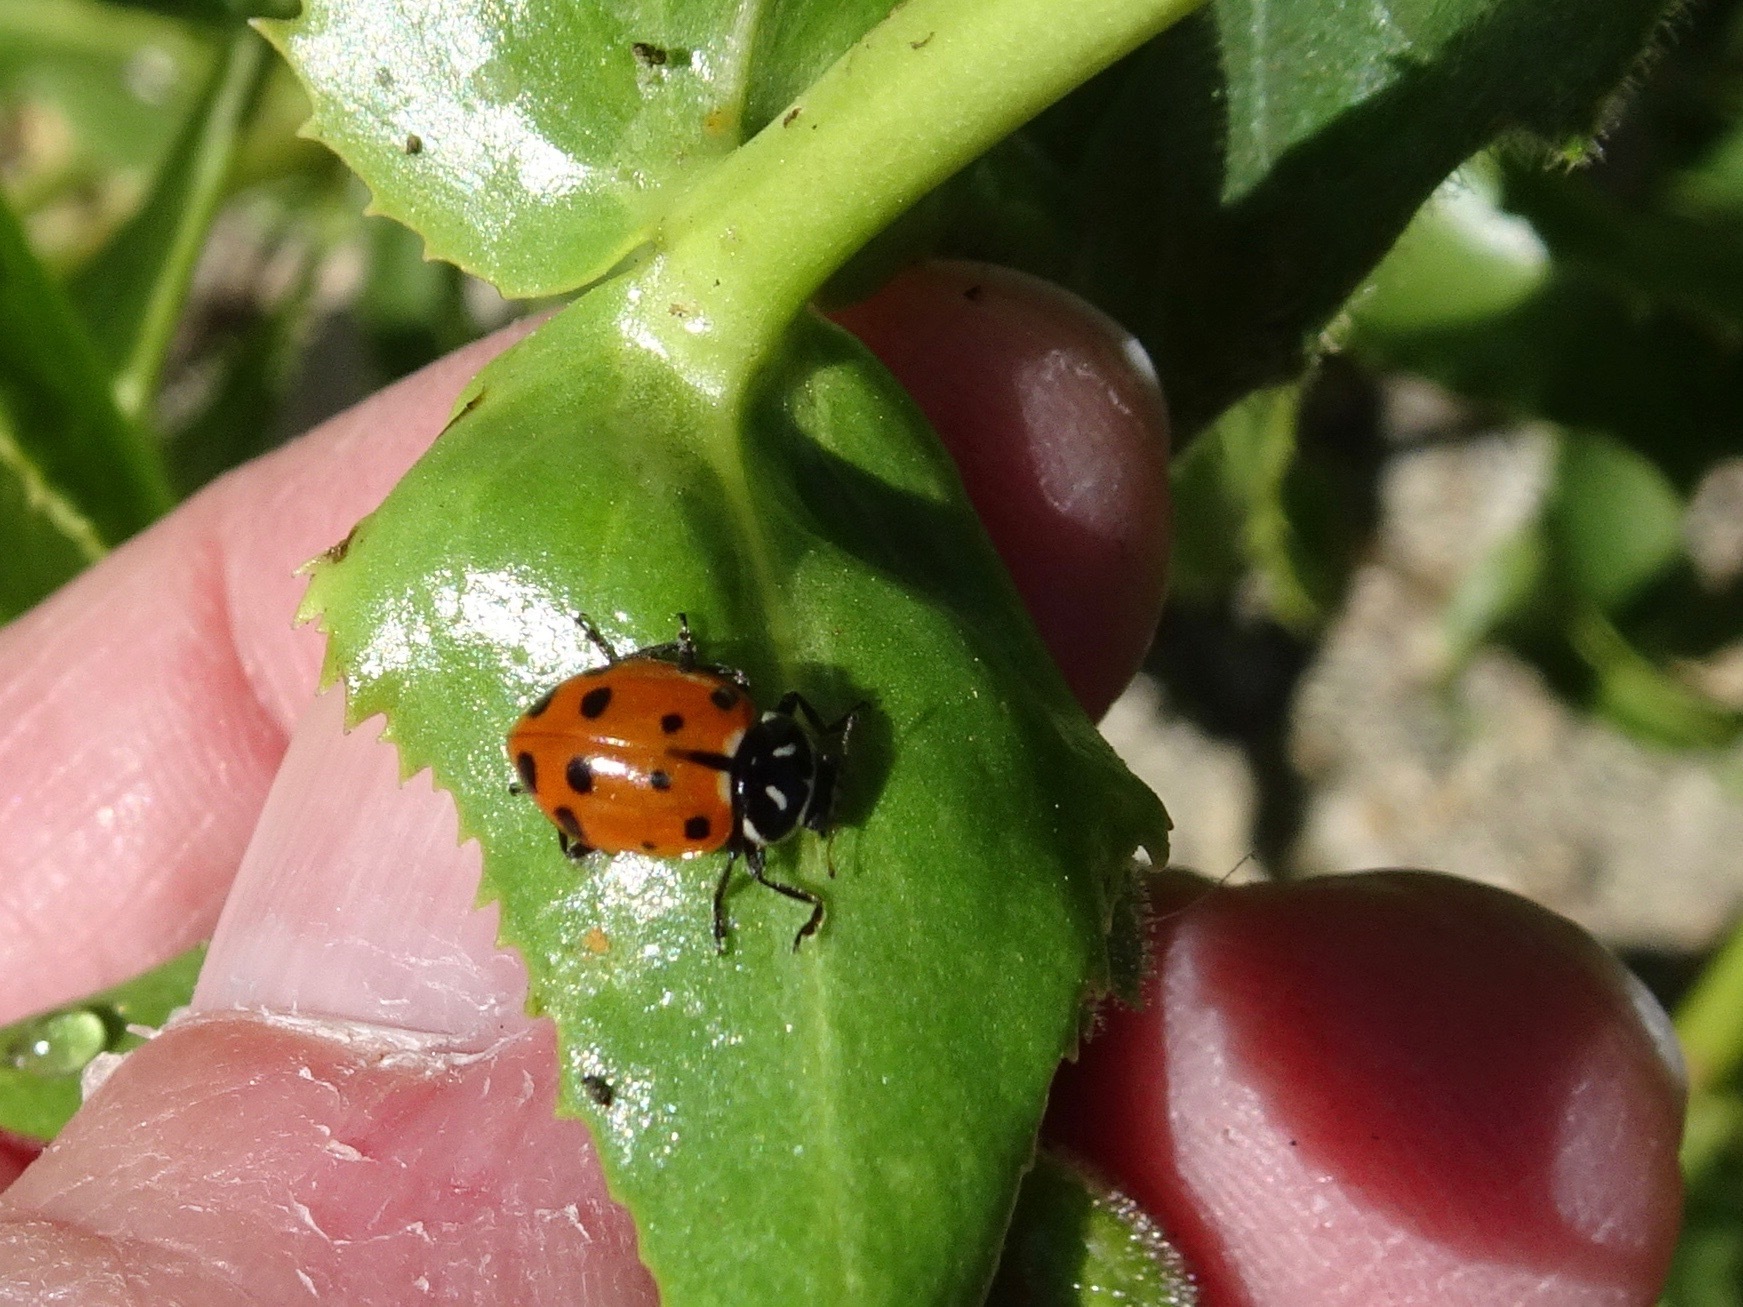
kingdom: Animalia
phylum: Arthropoda
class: Insecta
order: Coleoptera
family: Coccinellidae
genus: Hippodamia
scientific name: Hippodamia convergens
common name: Convergent lady beetle
